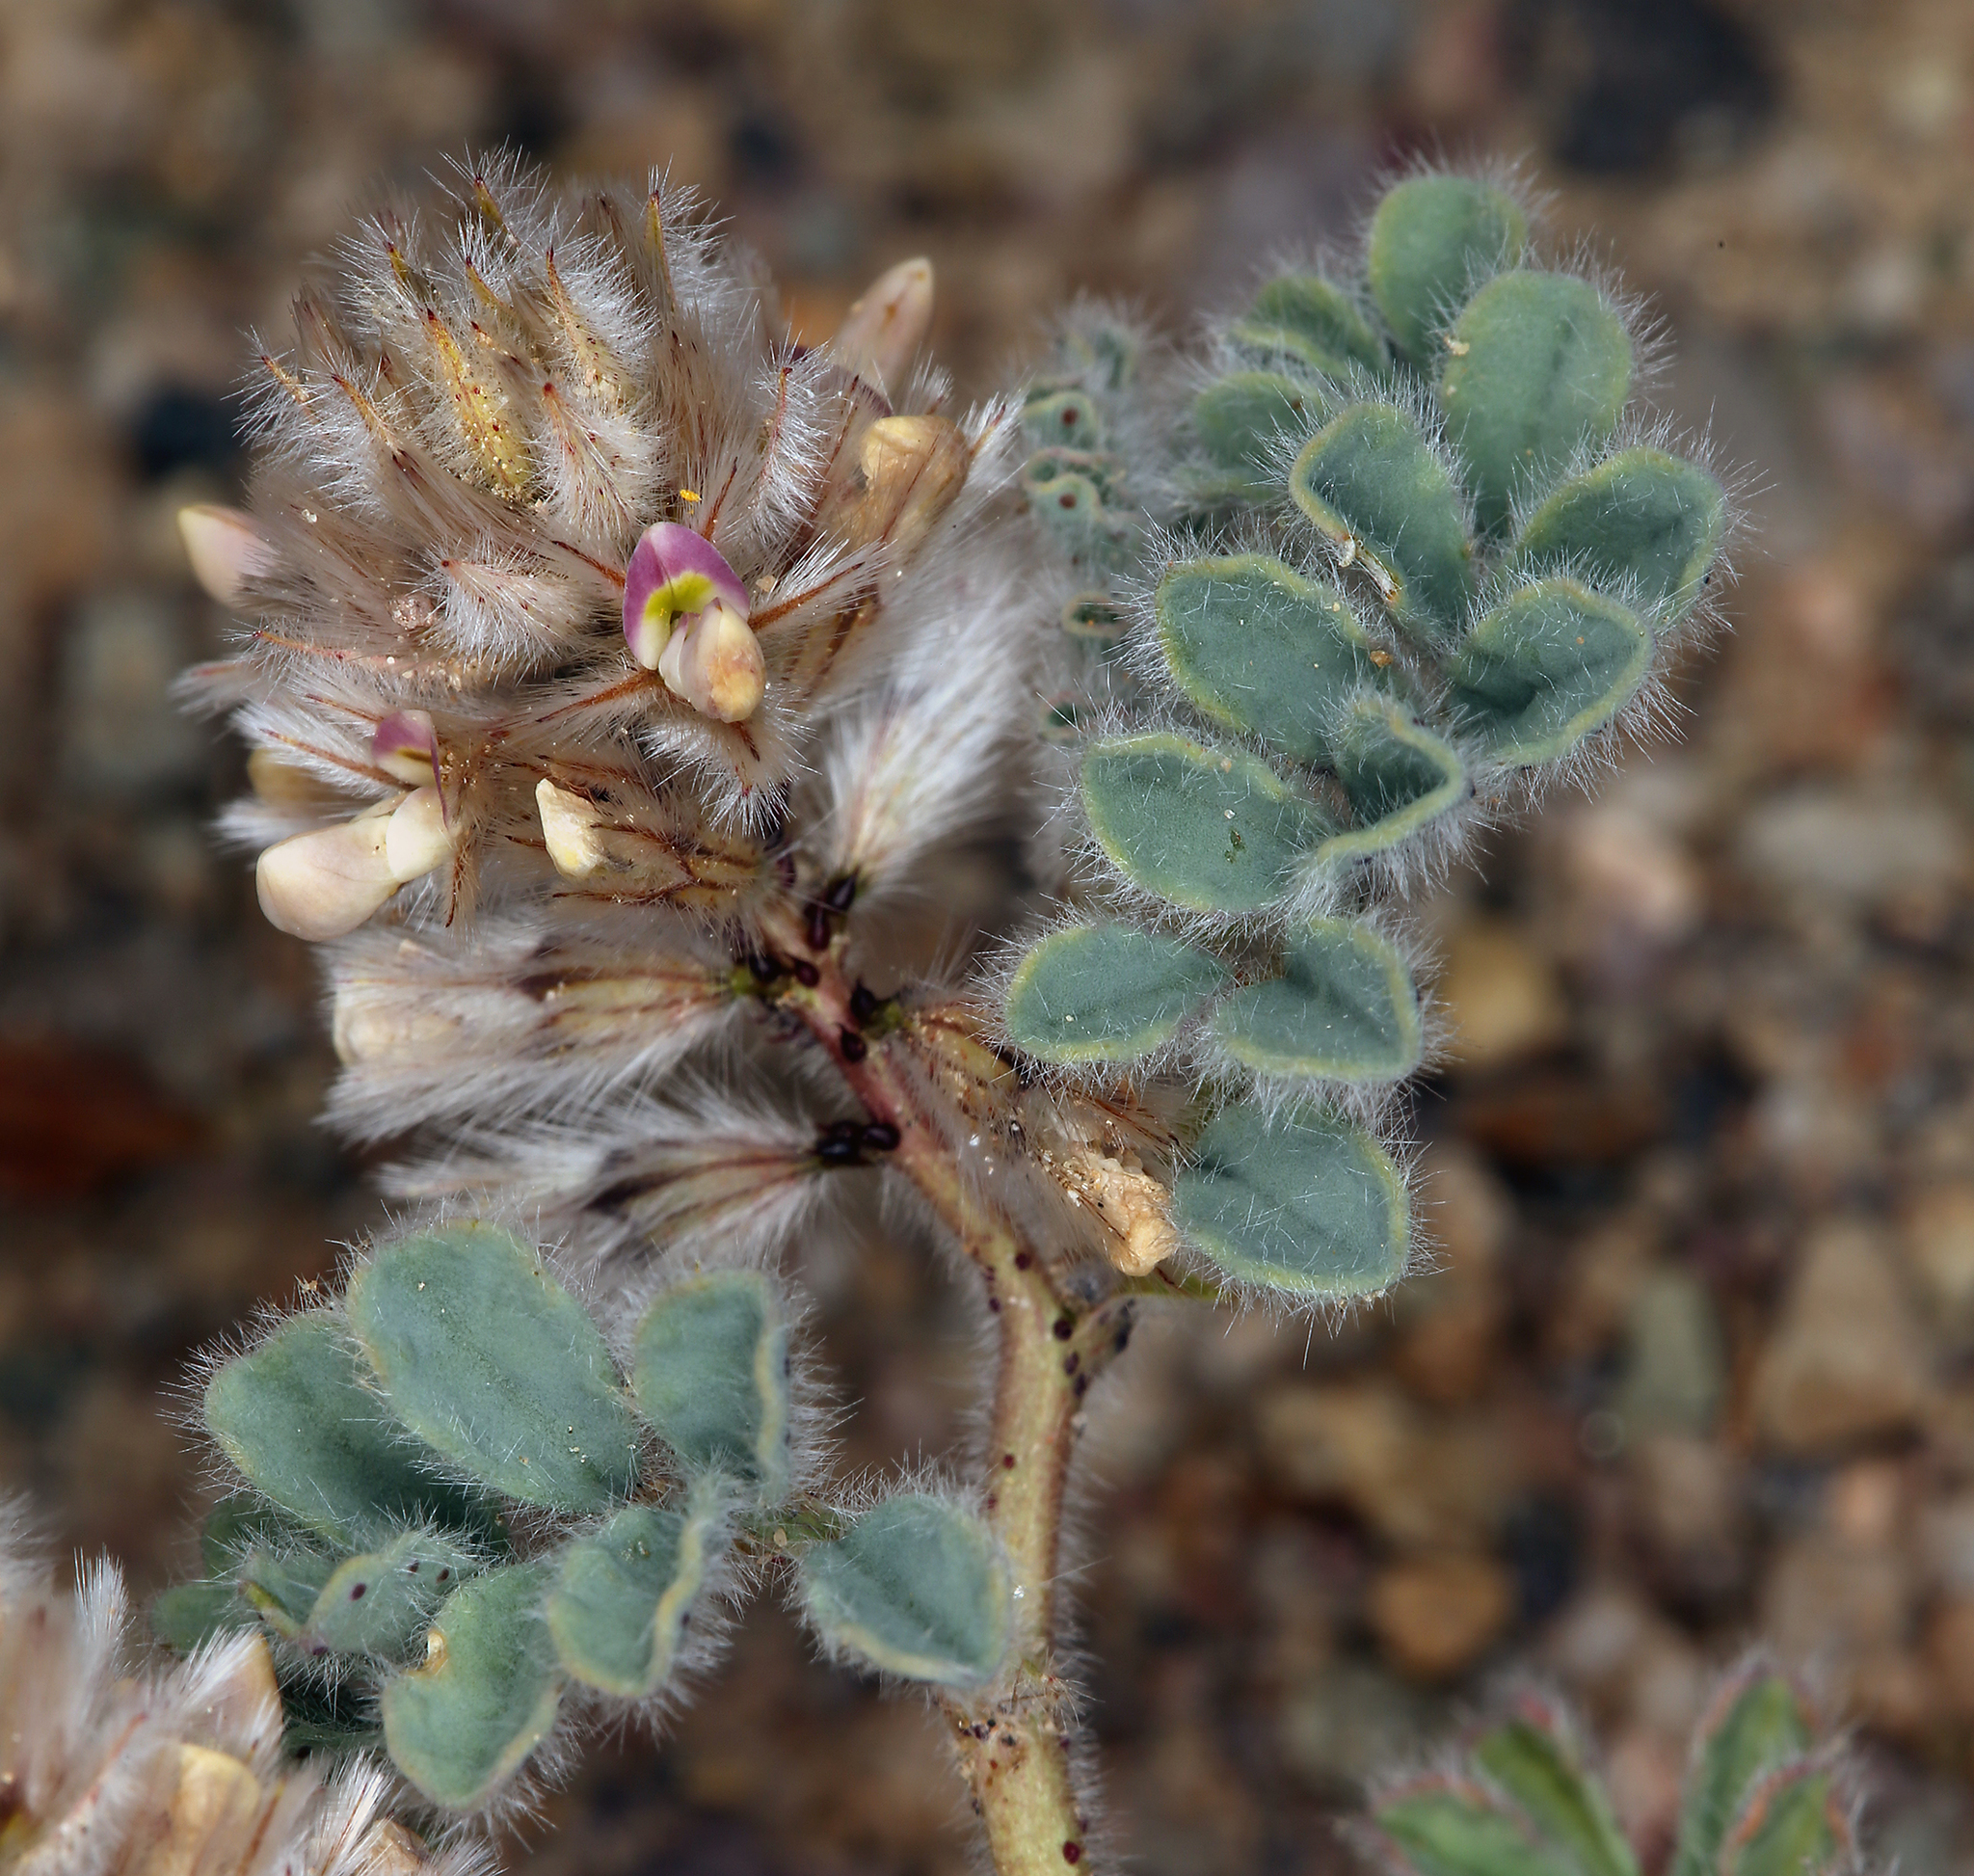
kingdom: Plantae
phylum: Tracheophyta
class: Magnoliopsida
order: Fabales
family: Fabaceae
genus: Dalea
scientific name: Dalea mollissima
